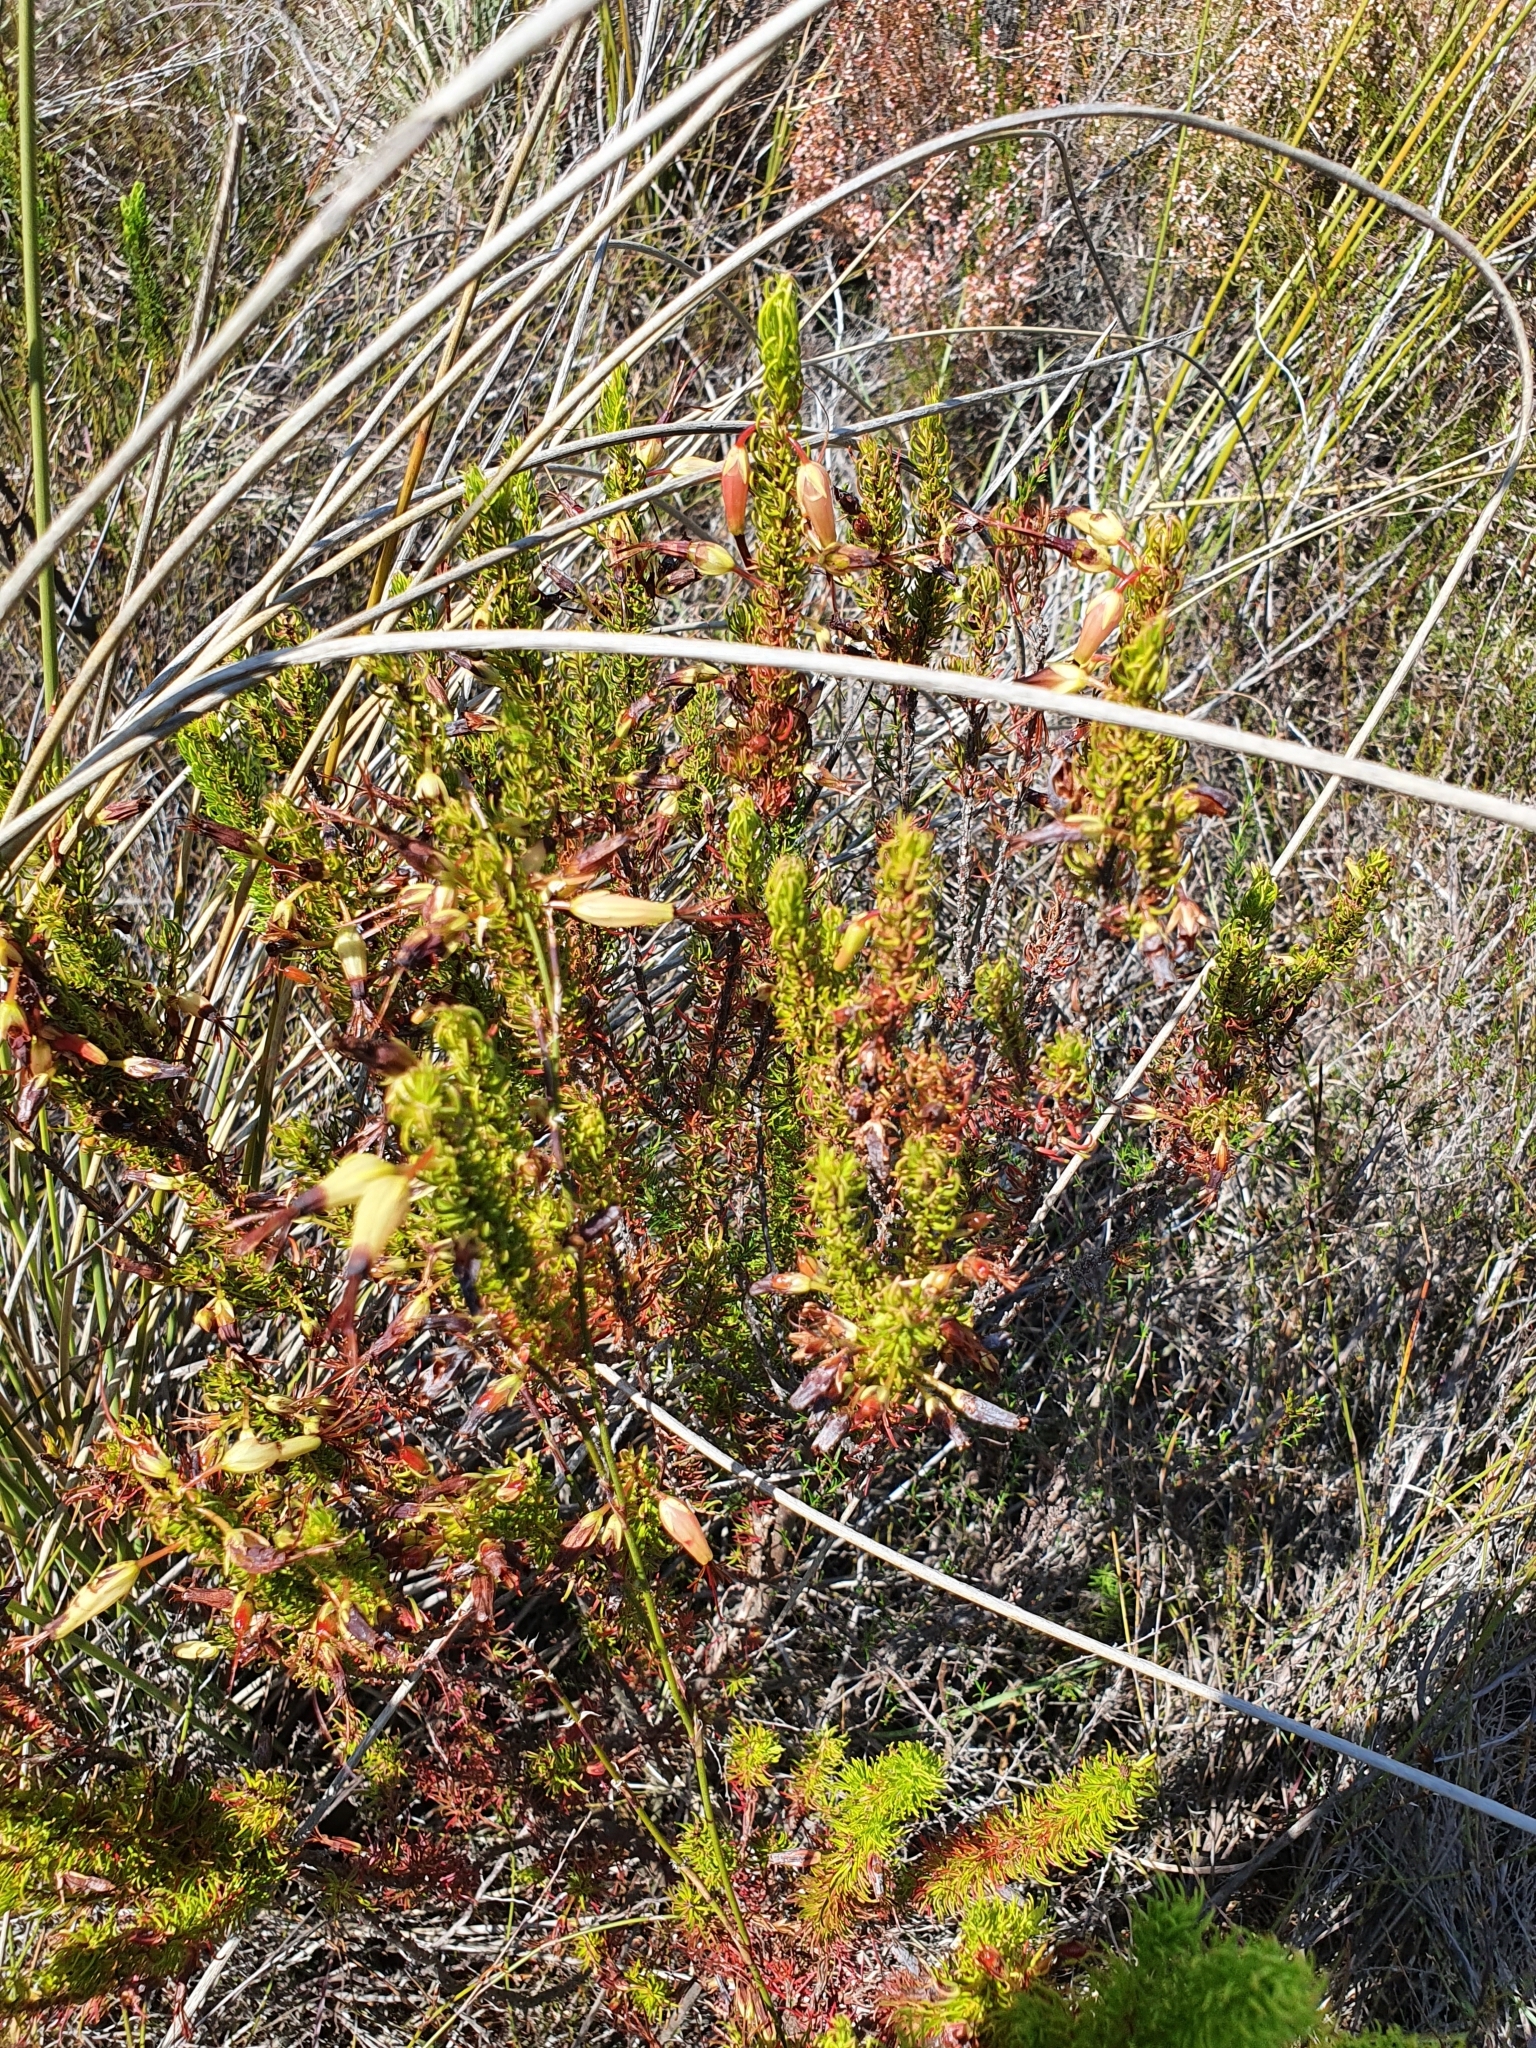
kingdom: Plantae
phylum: Tracheophyta
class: Magnoliopsida
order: Ericales
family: Ericaceae
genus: Erica
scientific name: Erica plukenetii
